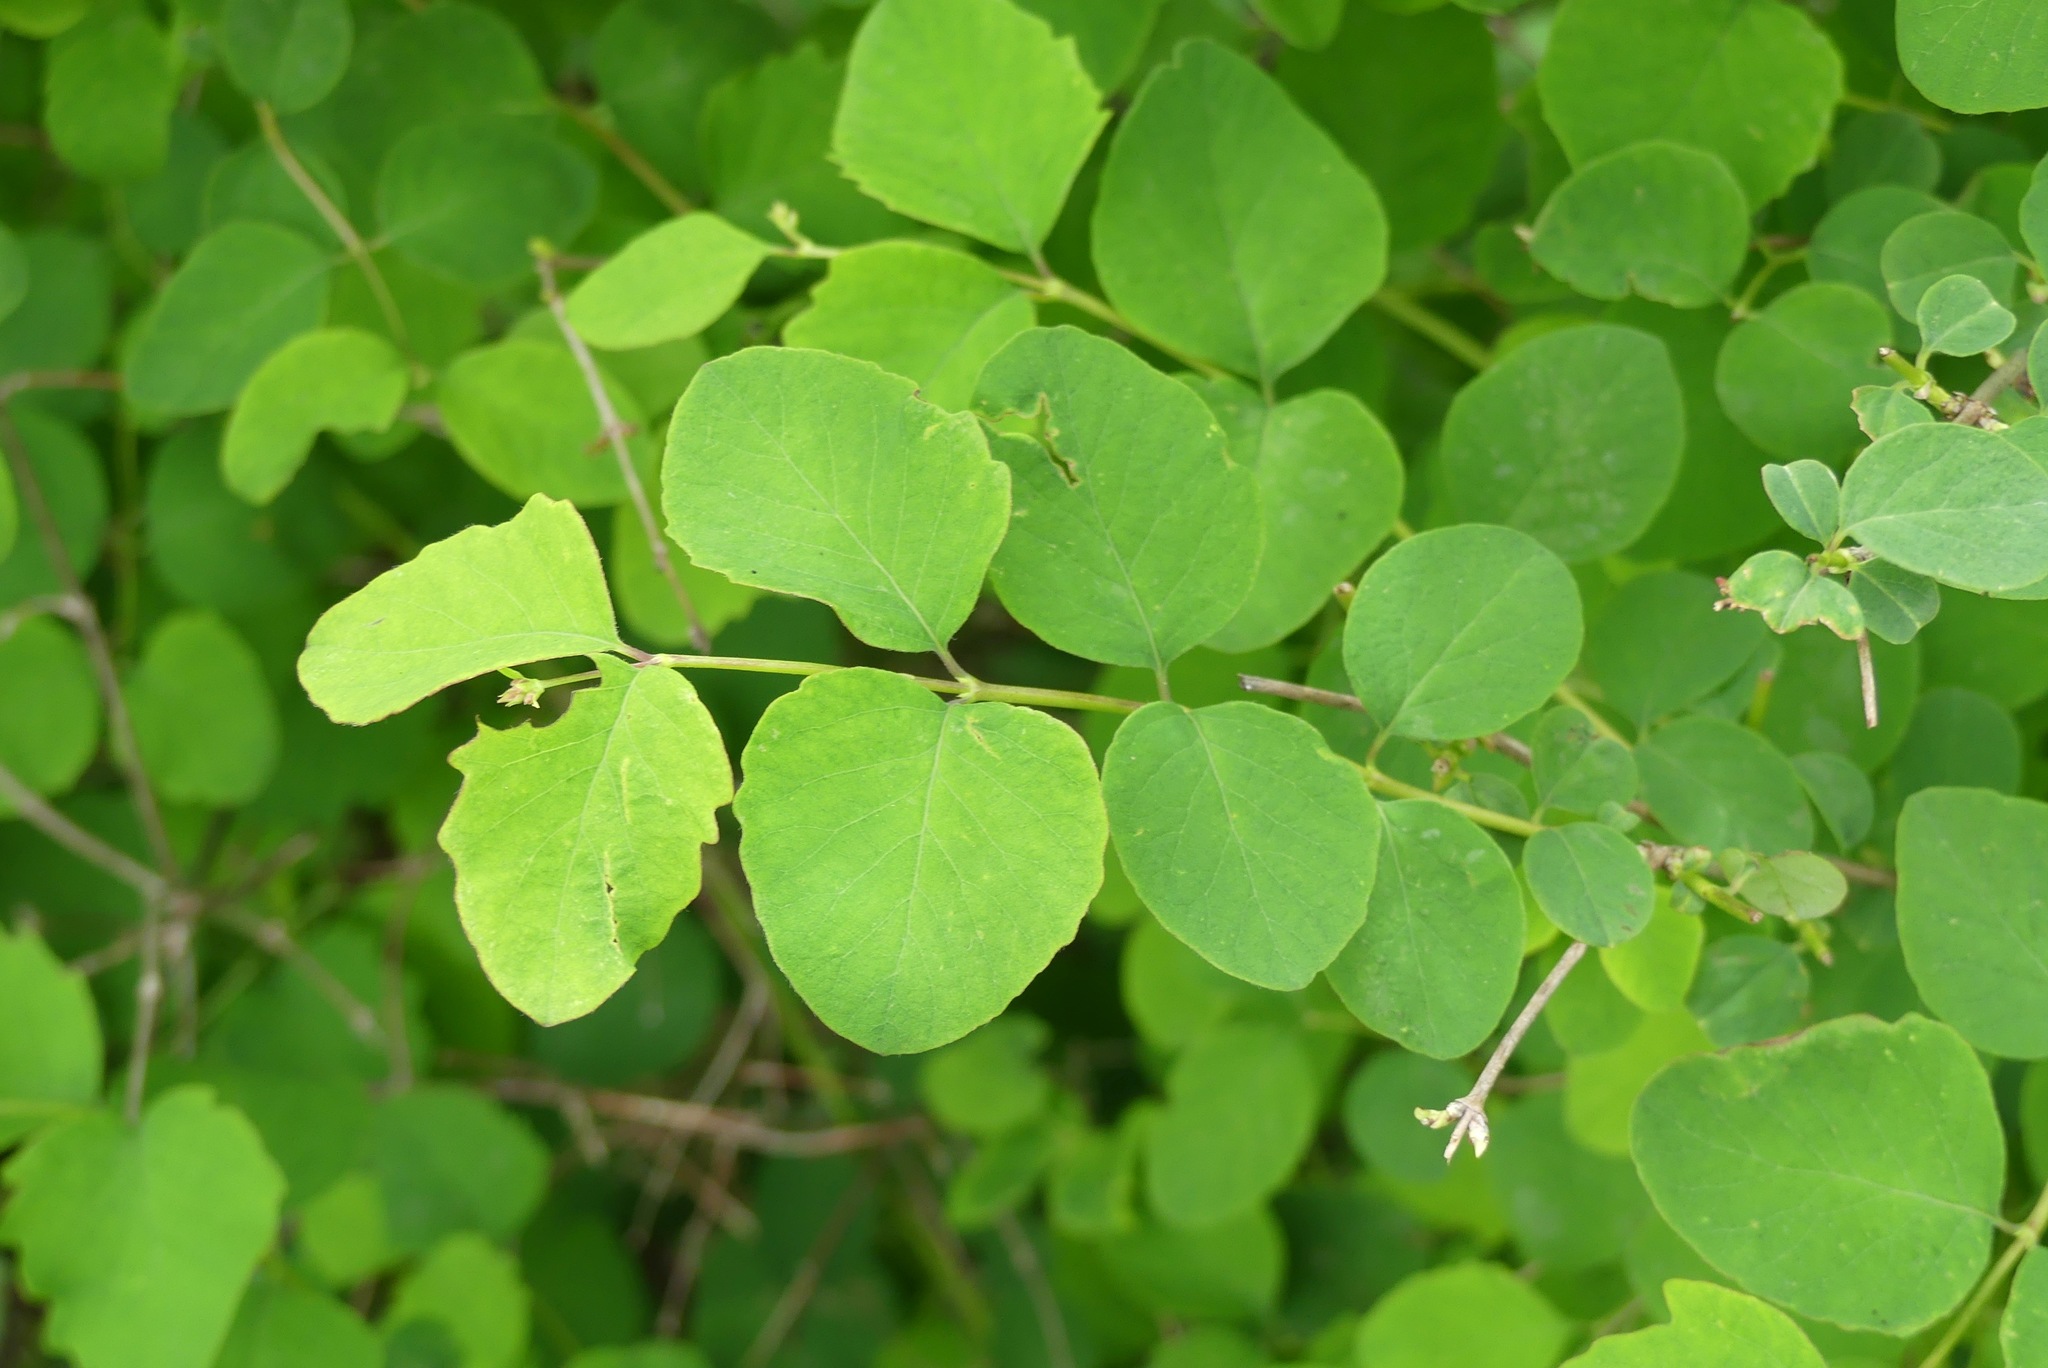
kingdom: Plantae
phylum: Tracheophyta
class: Magnoliopsida
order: Dipsacales
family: Caprifoliaceae
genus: Symphoricarpos
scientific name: Symphoricarpos albus
